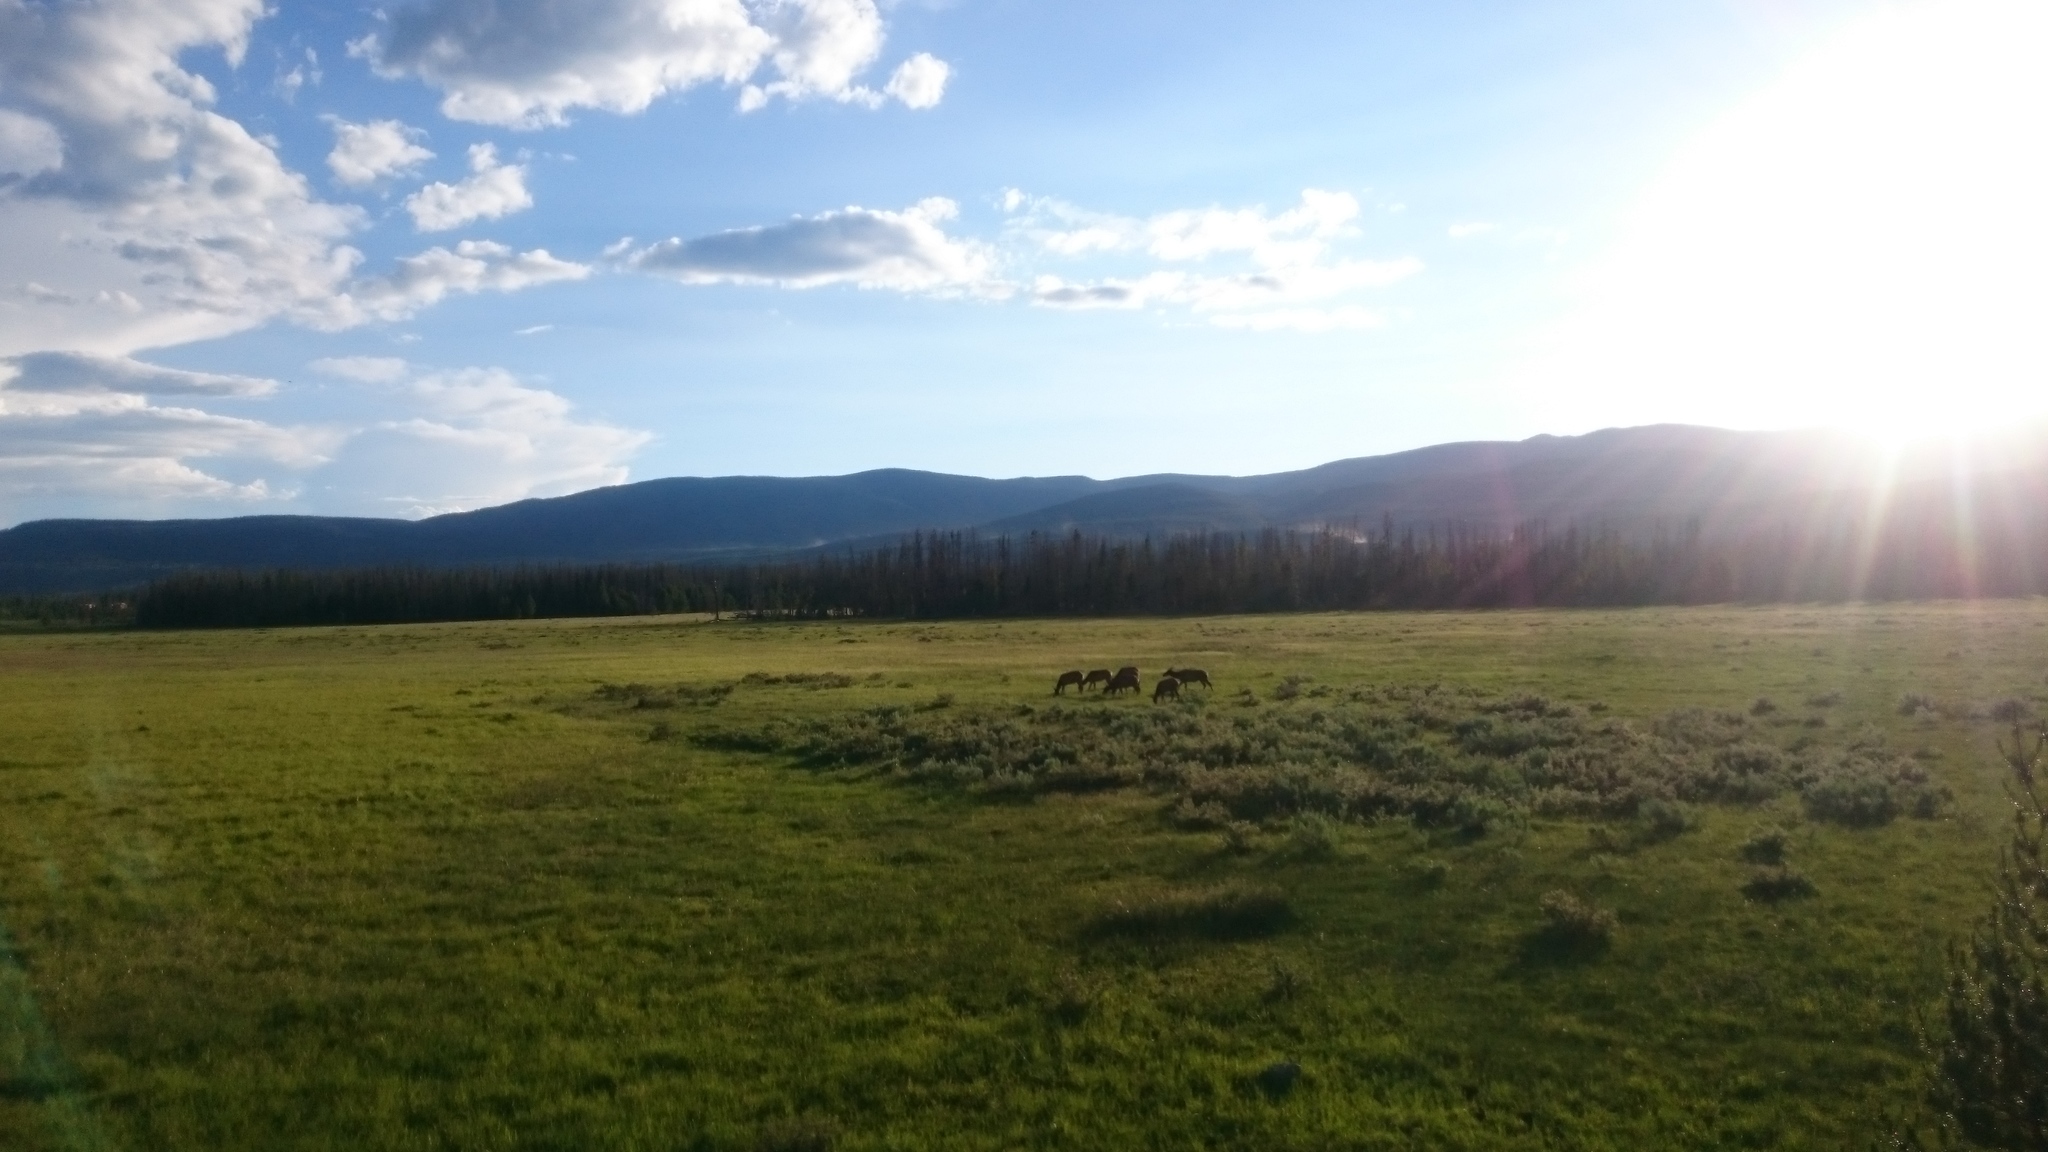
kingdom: Animalia
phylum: Chordata
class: Mammalia
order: Artiodactyla
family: Cervidae
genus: Cervus
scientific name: Cervus elaphus
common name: Red deer
